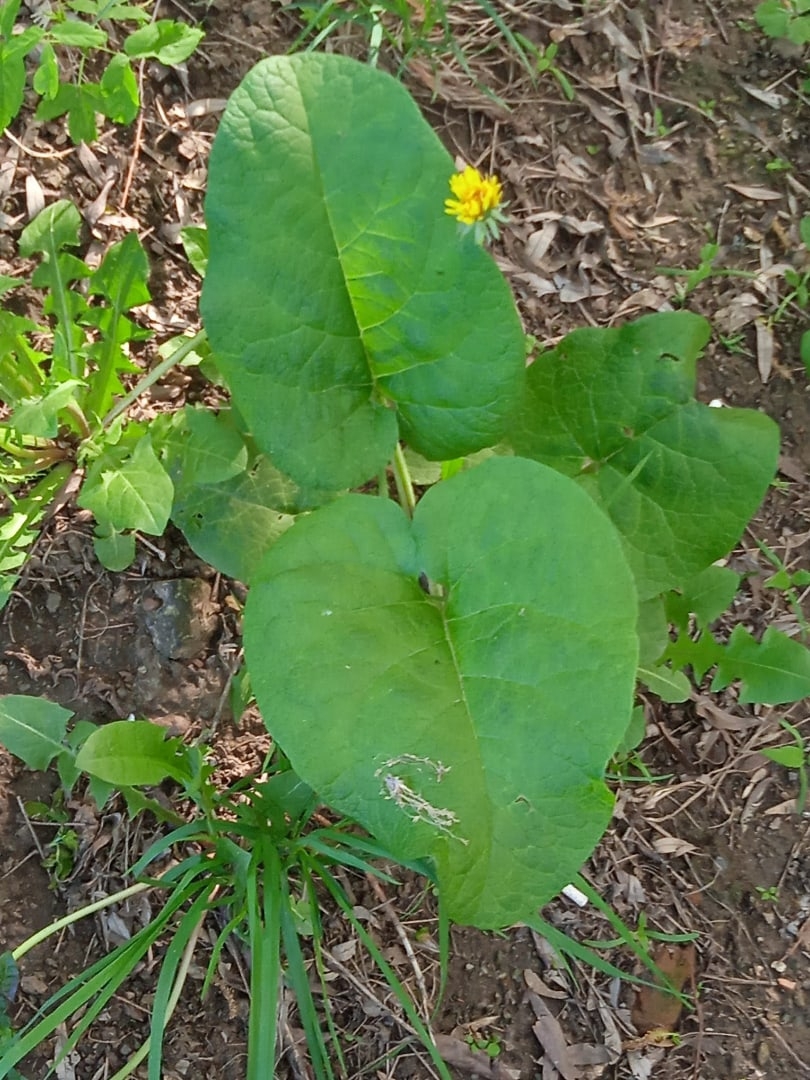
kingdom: Plantae
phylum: Tracheophyta
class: Magnoliopsida
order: Asterales
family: Asteraceae
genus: Arctium
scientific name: Arctium minus
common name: Lesser burdock
